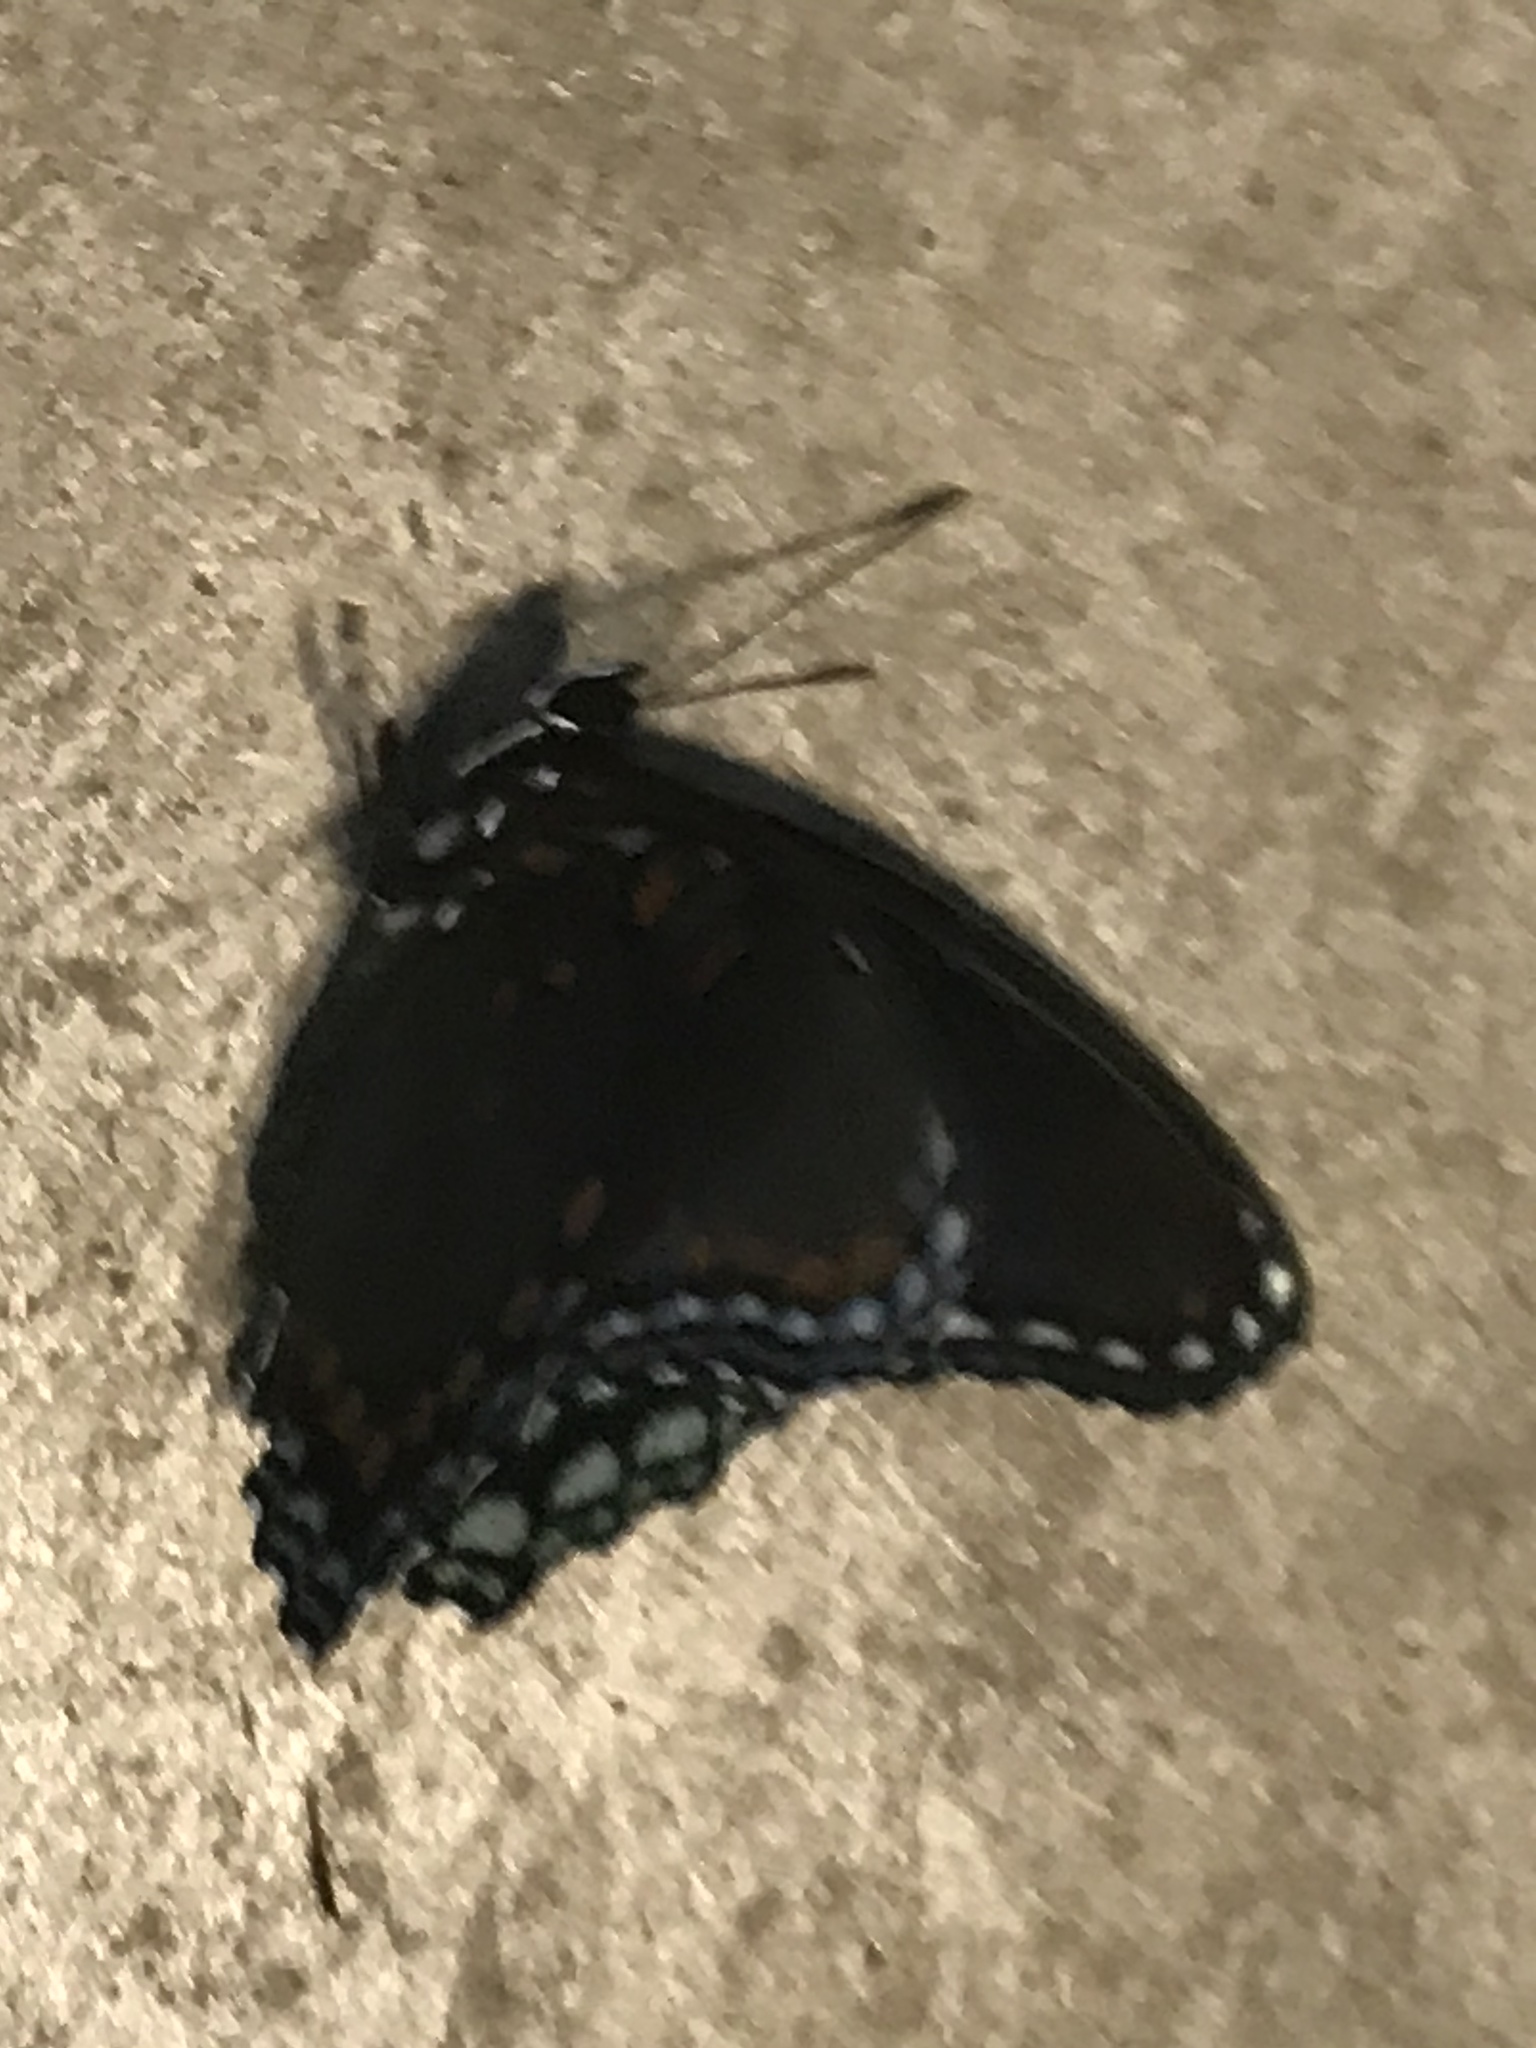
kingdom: Animalia
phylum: Arthropoda
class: Insecta
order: Lepidoptera
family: Nymphalidae
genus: Limenitis
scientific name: Limenitis astyanax
